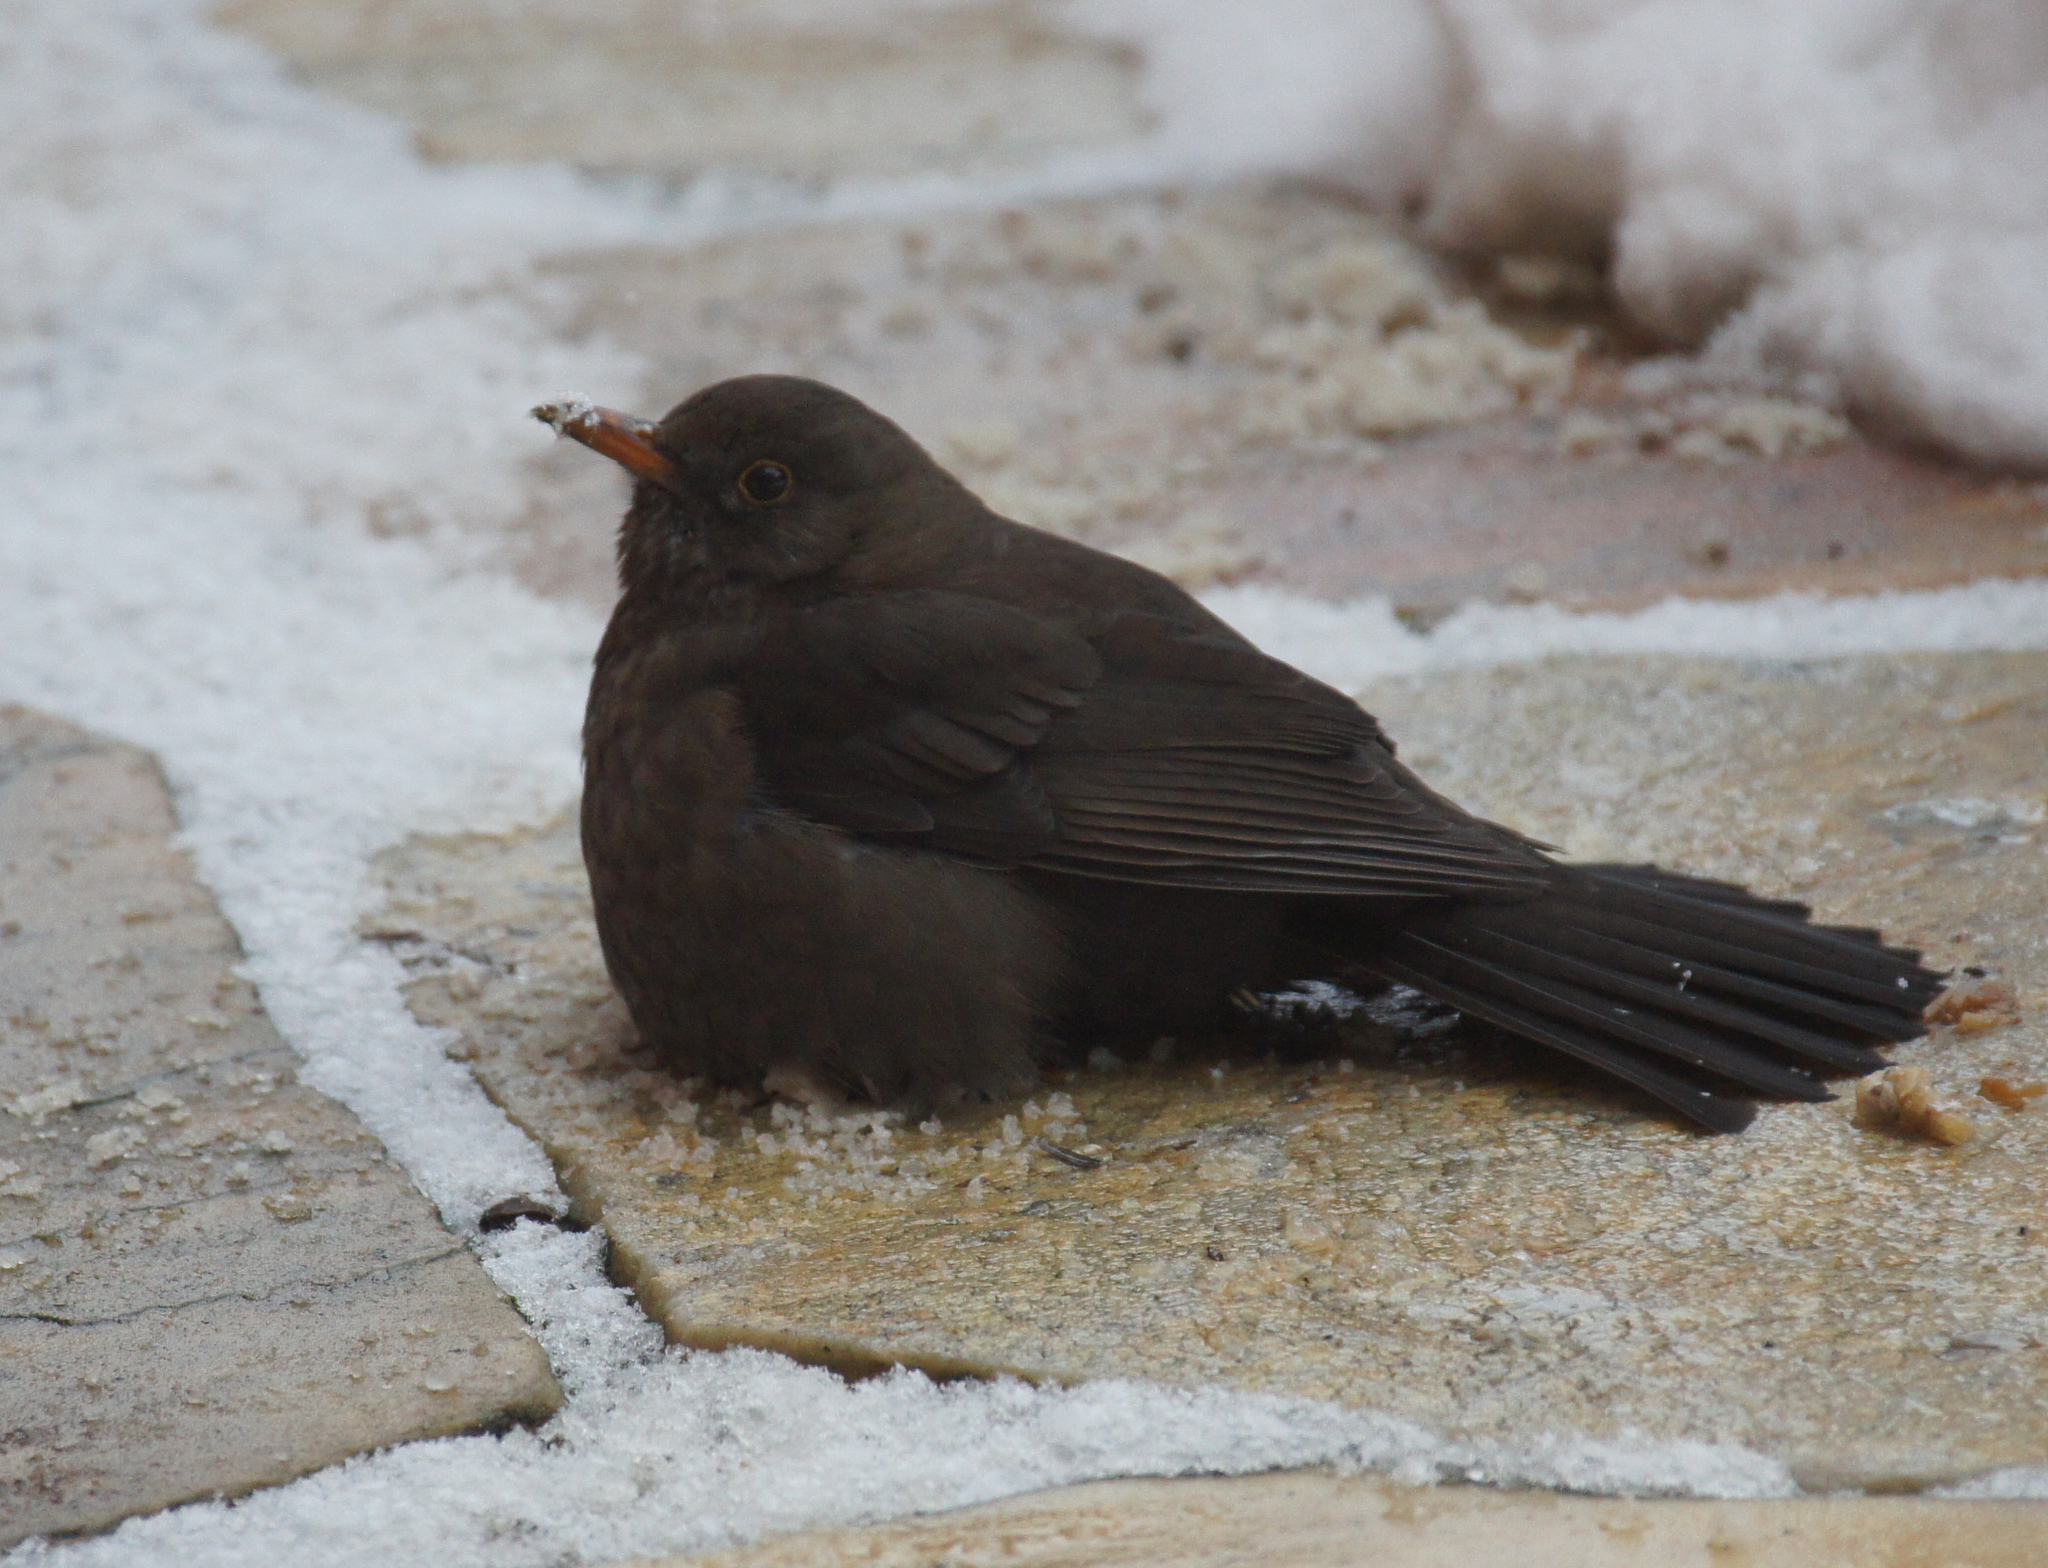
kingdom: Animalia
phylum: Chordata
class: Aves
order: Passeriformes
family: Turdidae
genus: Turdus
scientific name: Turdus merula
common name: Common blackbird
